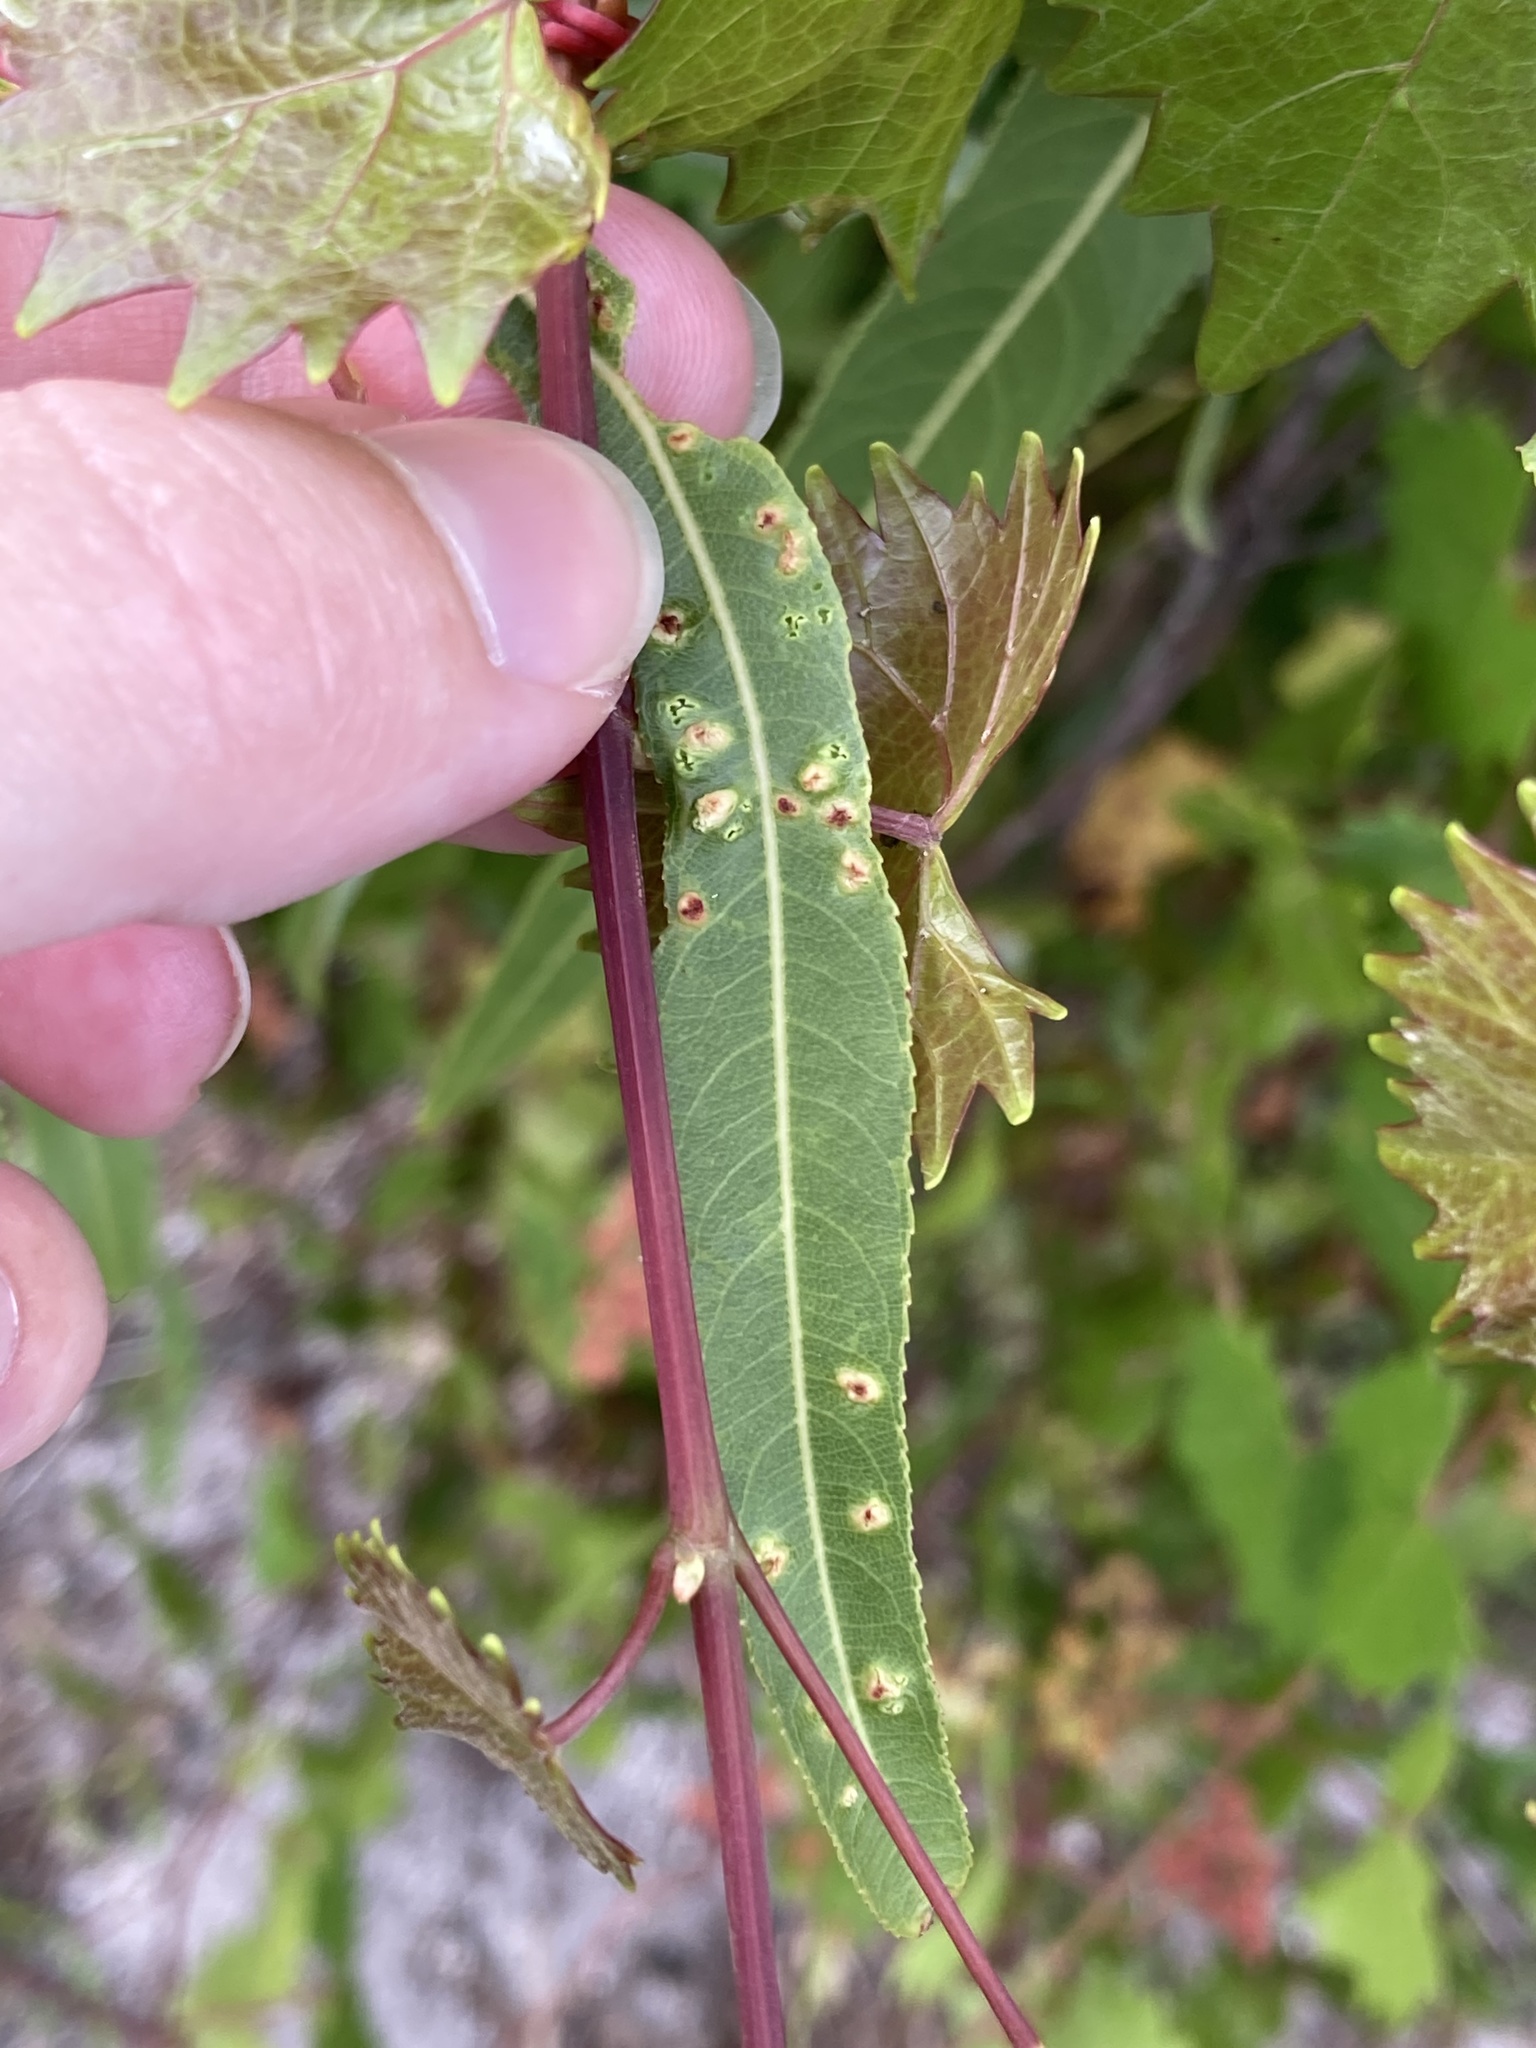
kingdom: Animalia
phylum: Arthropoda
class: Arachnida
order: Trombidiformes
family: Eriophyidae
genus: Aculus
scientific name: Aculus tetanothrix
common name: Willow bead gall mite
